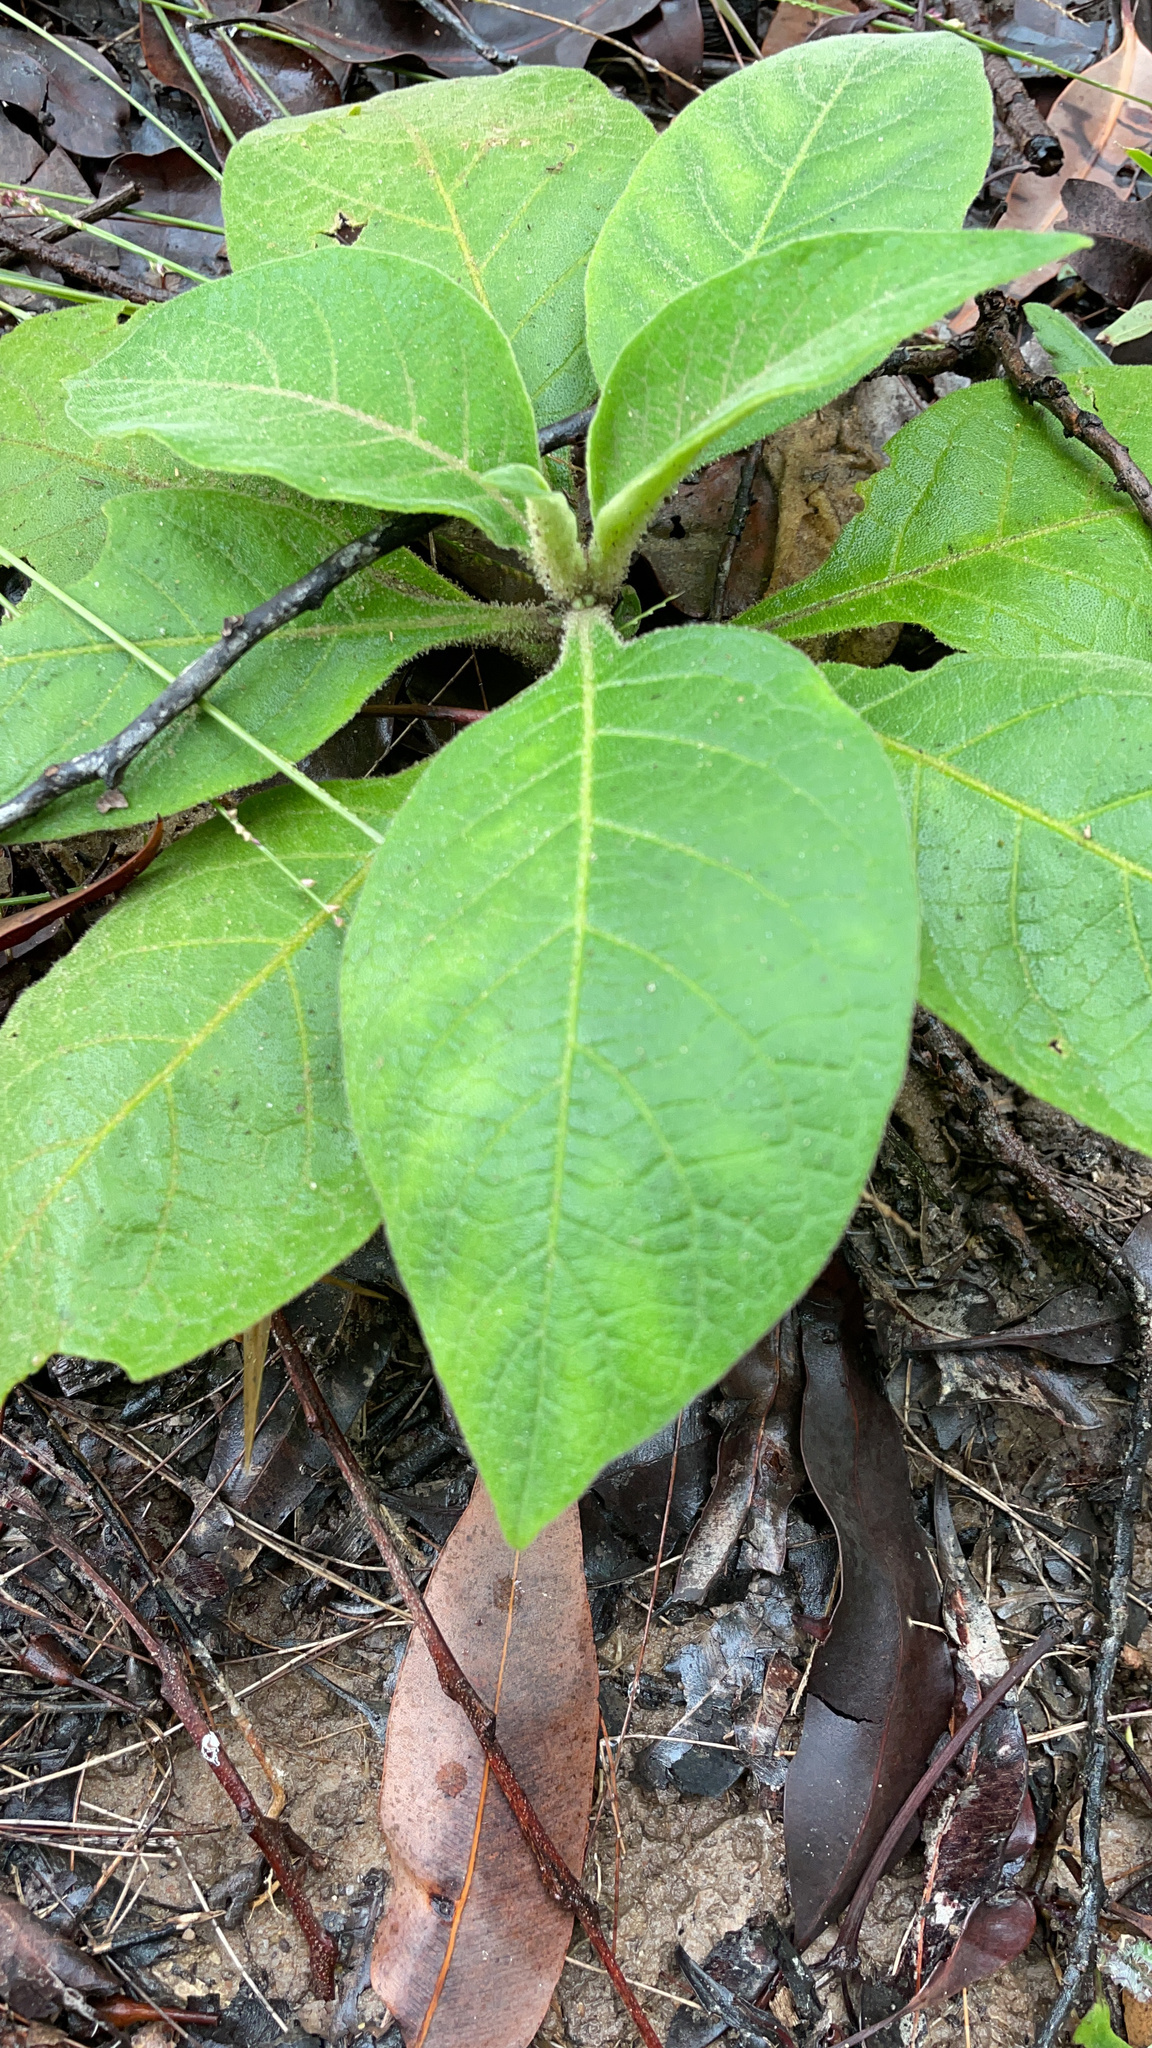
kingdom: Plantae
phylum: Tracheophyta
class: Magnoliopsida
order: Solanales
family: Solanaceae
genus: Solanum
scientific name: Solanum mauritianum
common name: Earleaf nightshade
